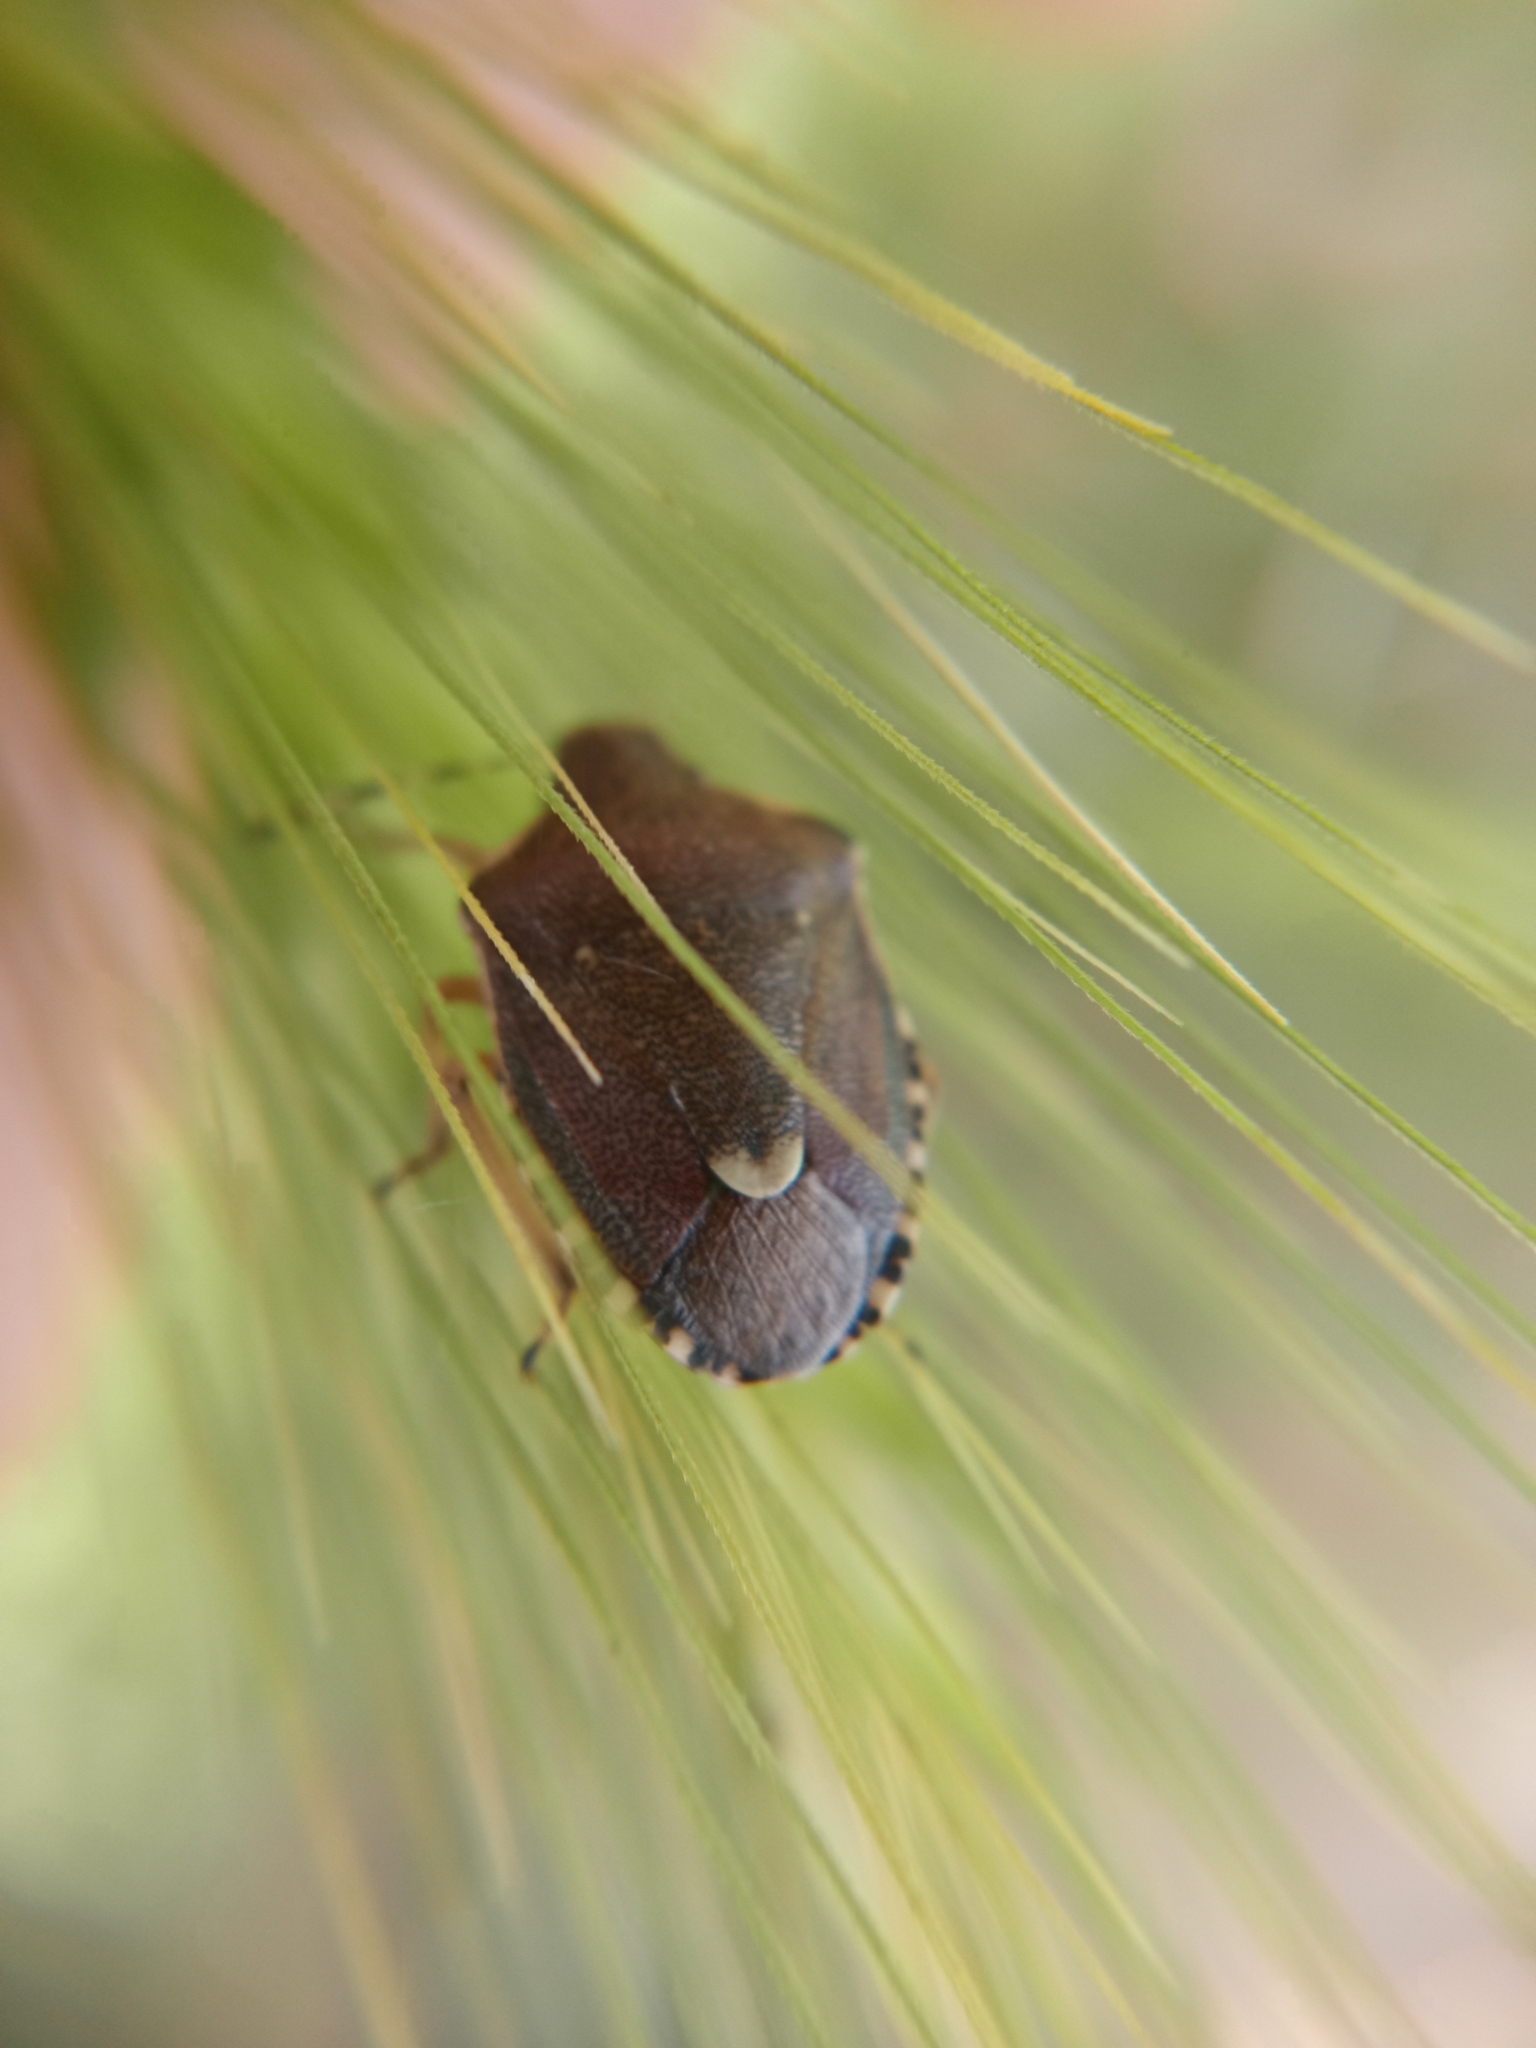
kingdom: Animalia
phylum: Arthropoda
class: Insecta
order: Hemiptera
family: Pentatomidae
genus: Holcostethus
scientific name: Holcostethus sphacelatus
